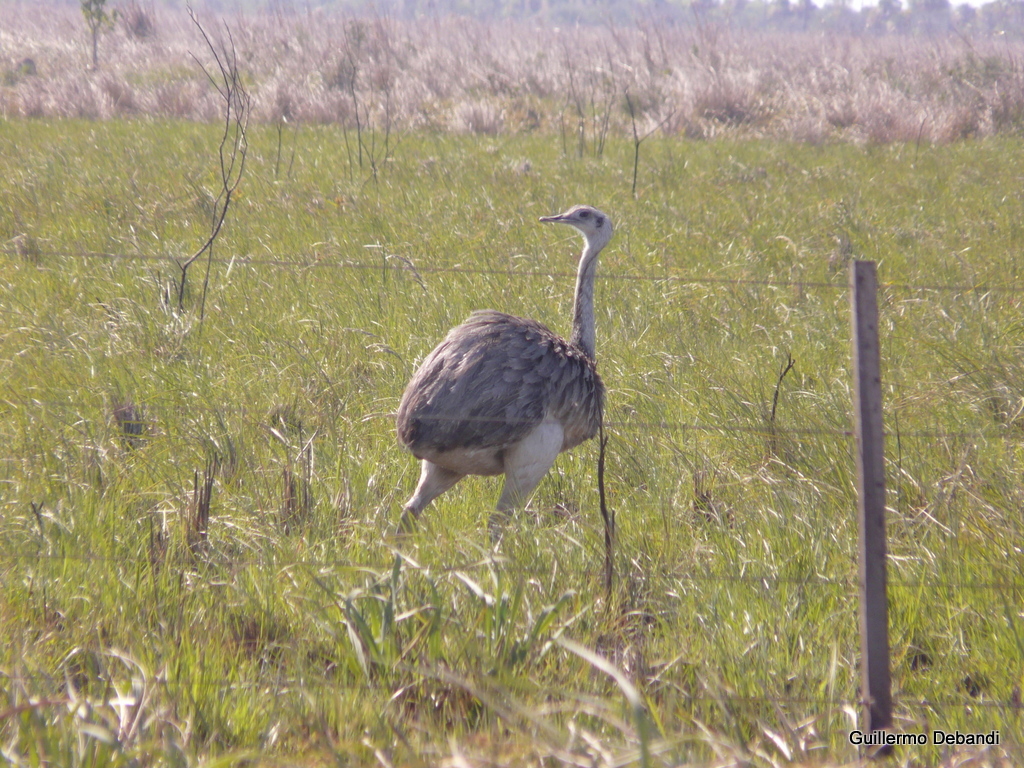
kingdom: Animalia
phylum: Chordata
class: Aves
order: Rheiformes
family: Rheidae
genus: Rhea
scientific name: Rhea americana
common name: Greater rhea
